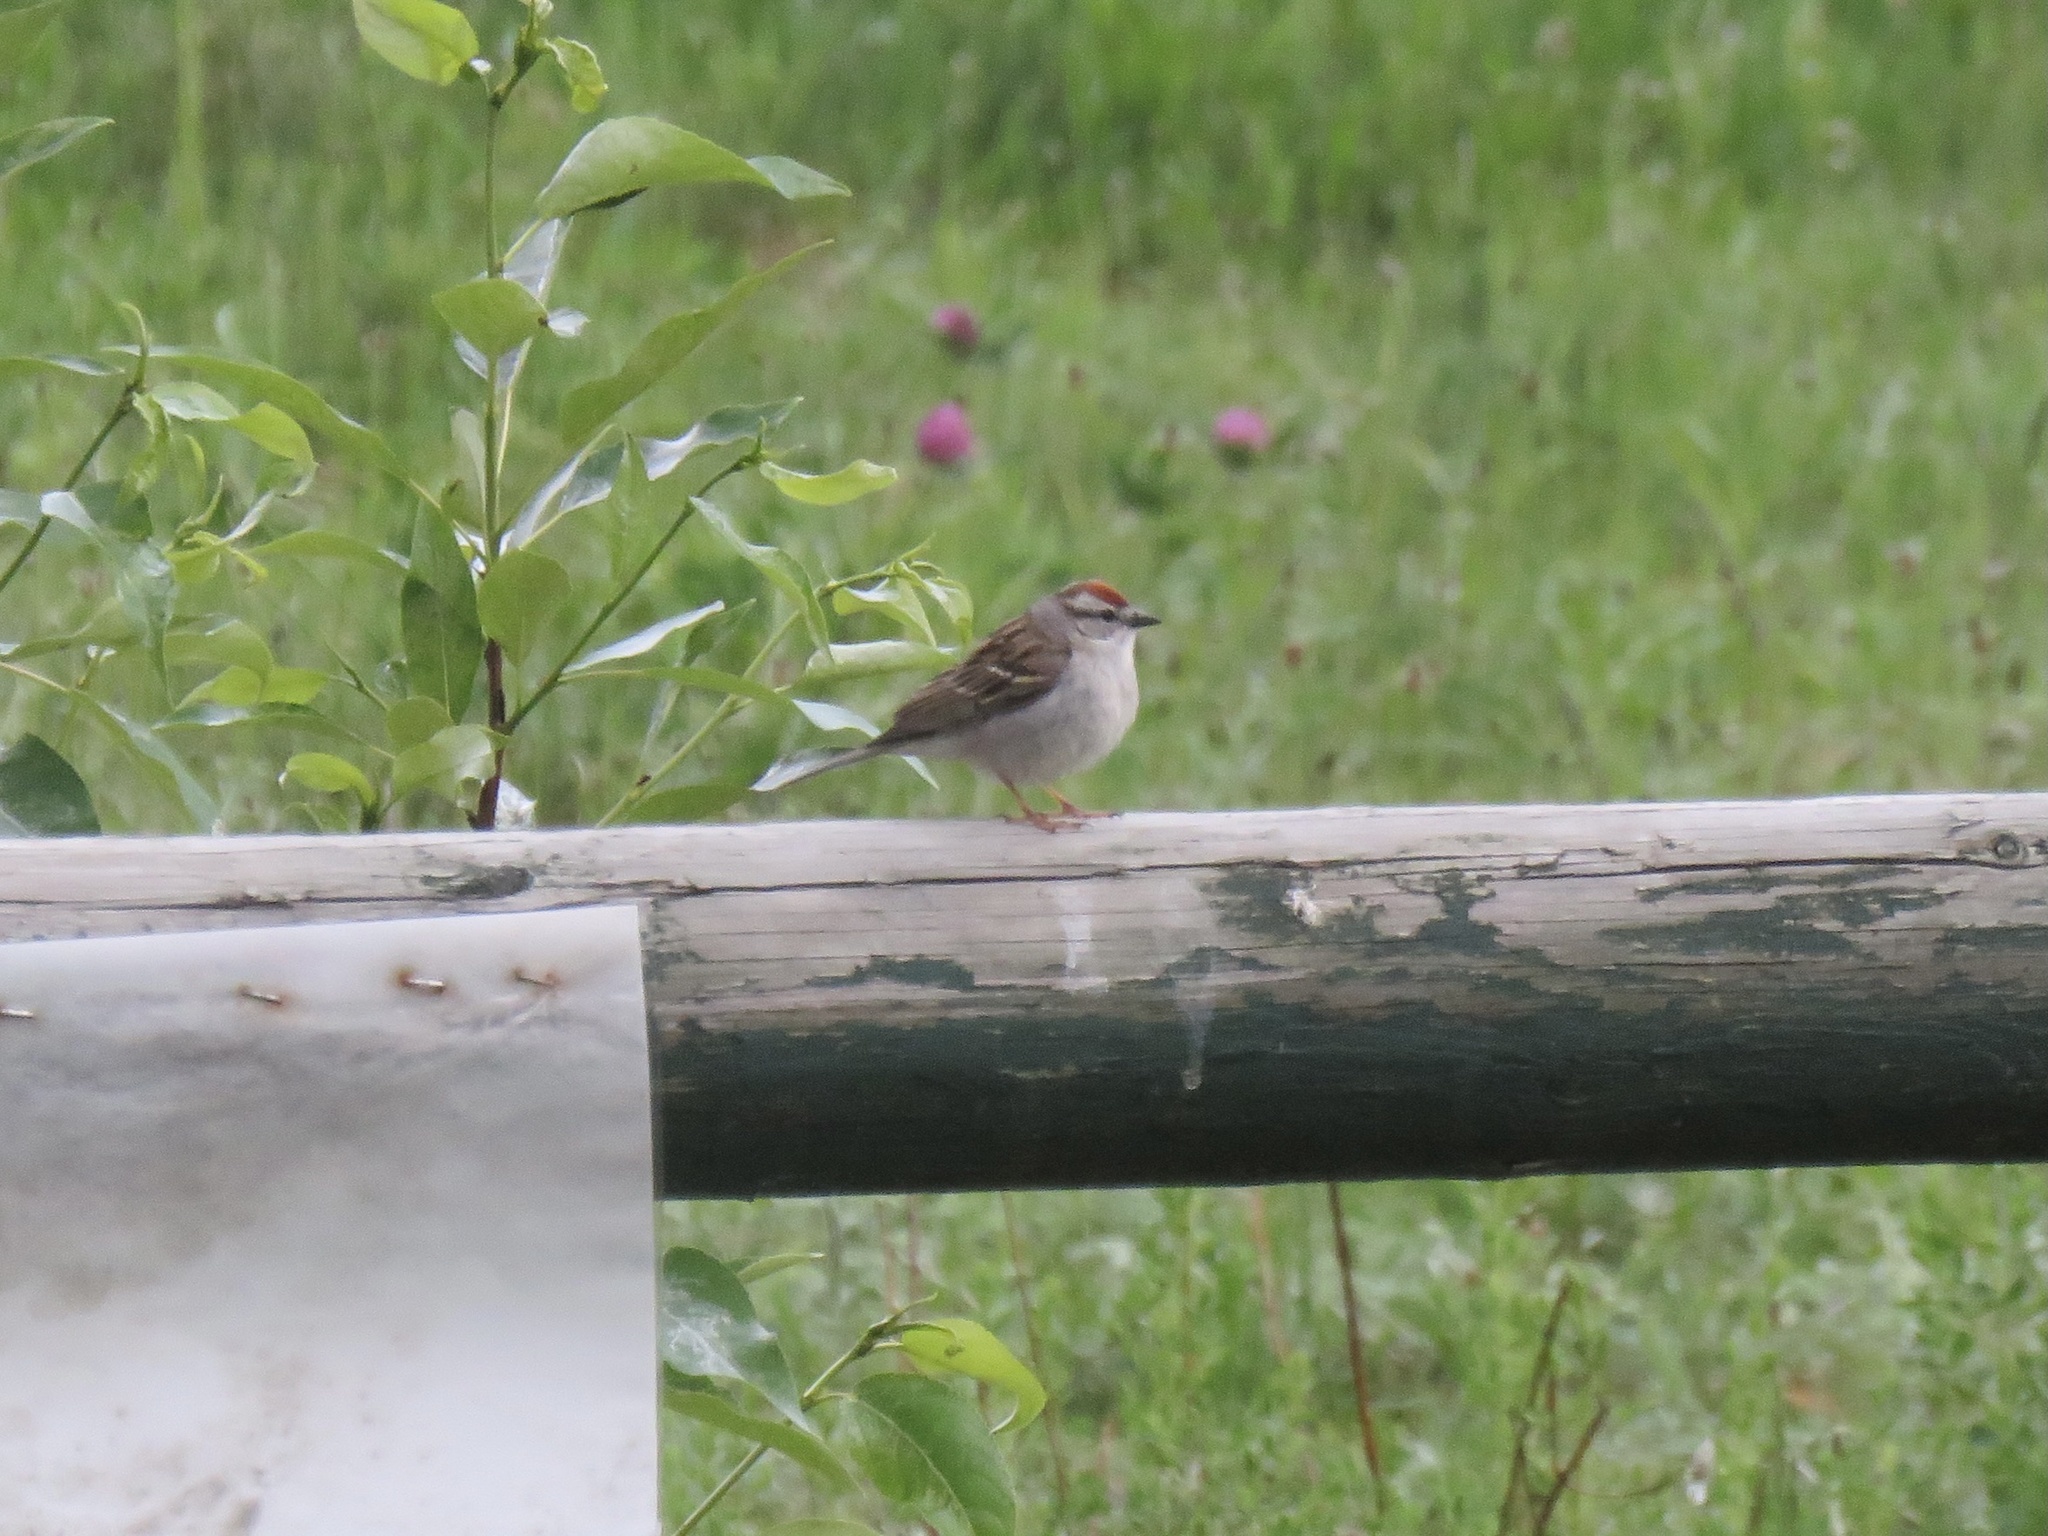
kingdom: Animalia
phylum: Chordata
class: Aves
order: Passeriformes
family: Passerellidae
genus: Spizella
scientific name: Spizella passerina
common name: Chipping sparrow
